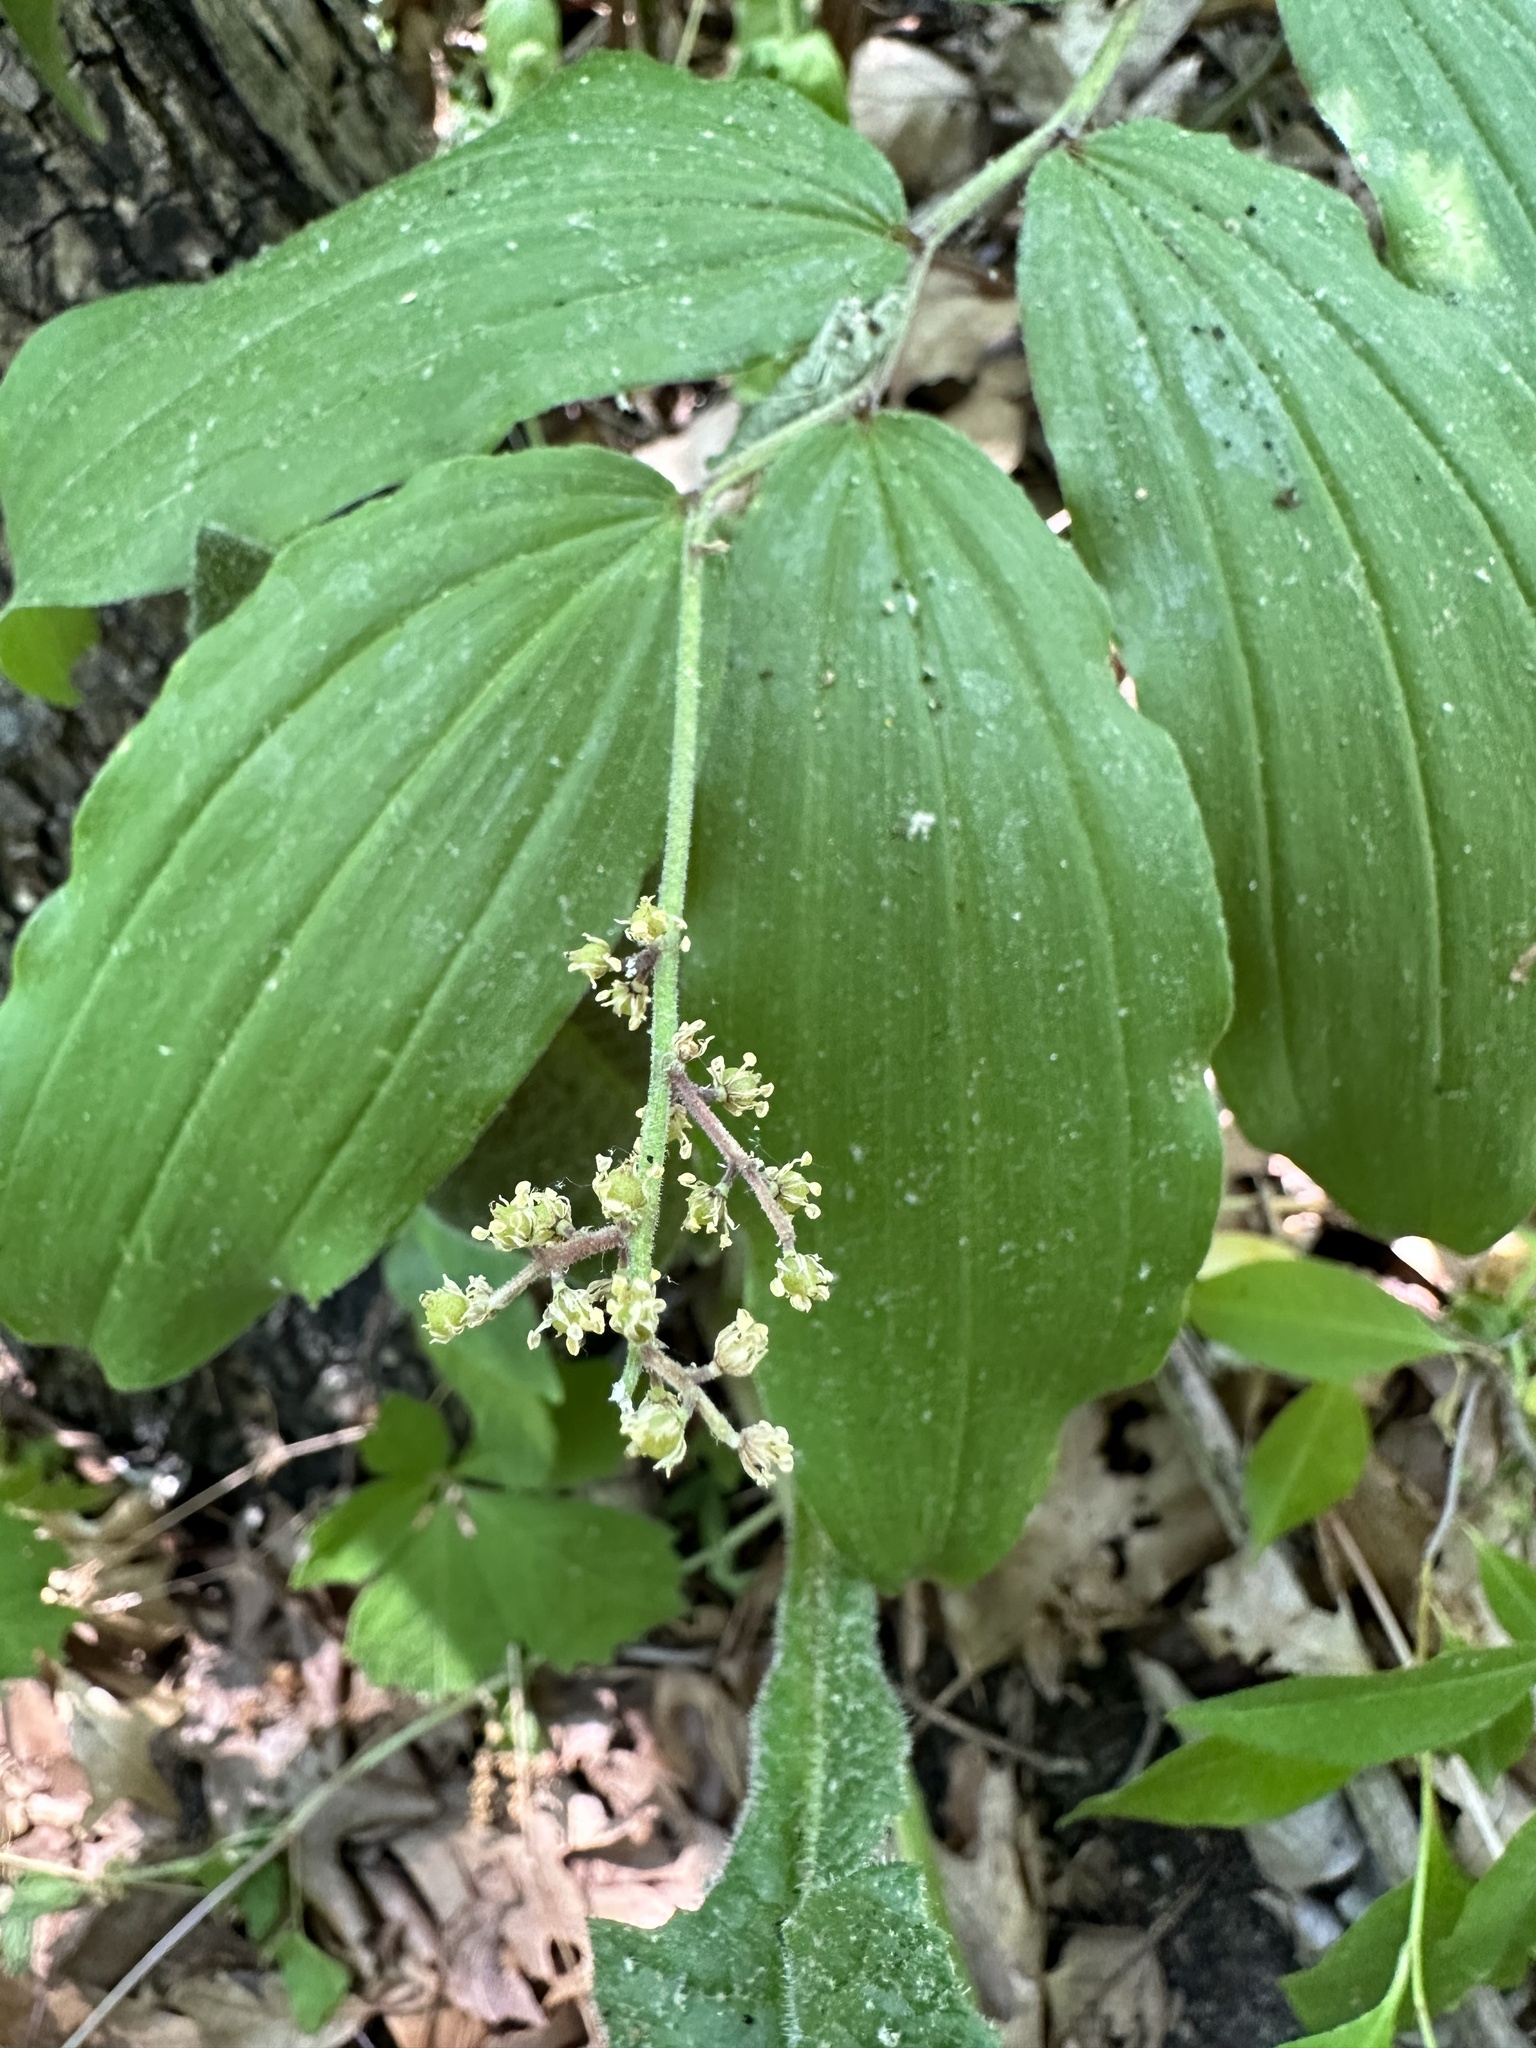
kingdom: Plantae
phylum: Tracheophyta
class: Liliopsida
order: Asparagales
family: Asparagaceae
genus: Maianthemum
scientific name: Maianthemum racemosum
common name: False spikenard
